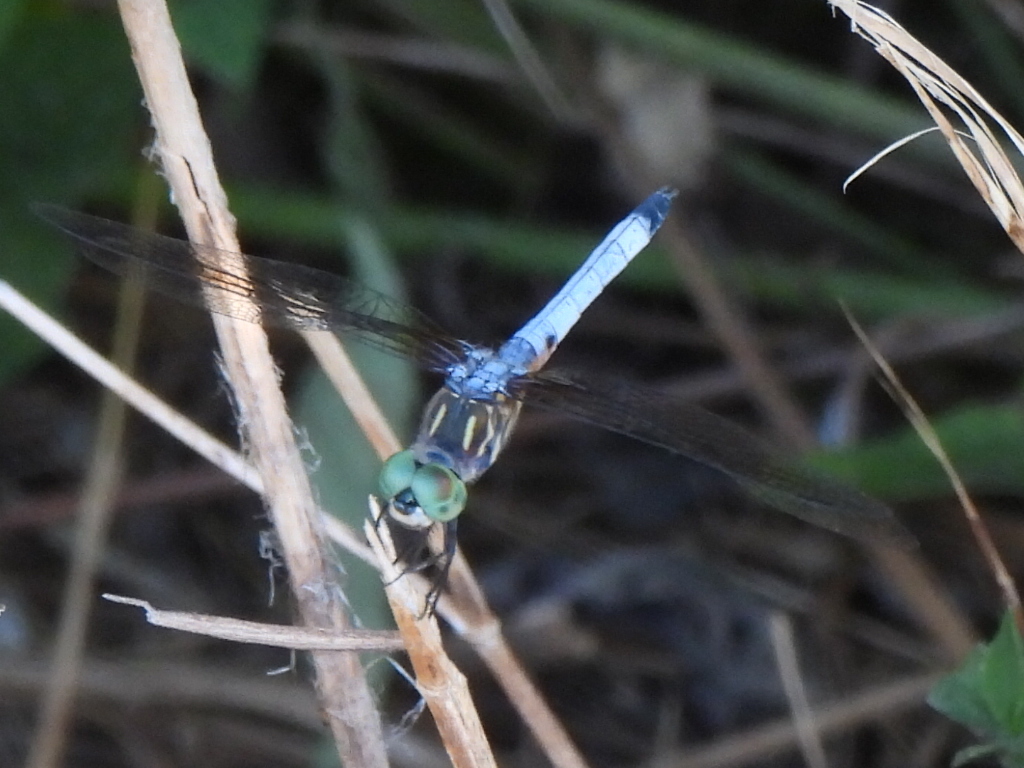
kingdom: Animalia
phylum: Arthropoda
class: Insecta
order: Odonata
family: Libellulidae
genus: Pachydiplax
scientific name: Pachydiplax longipennis
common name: Blue dasher
